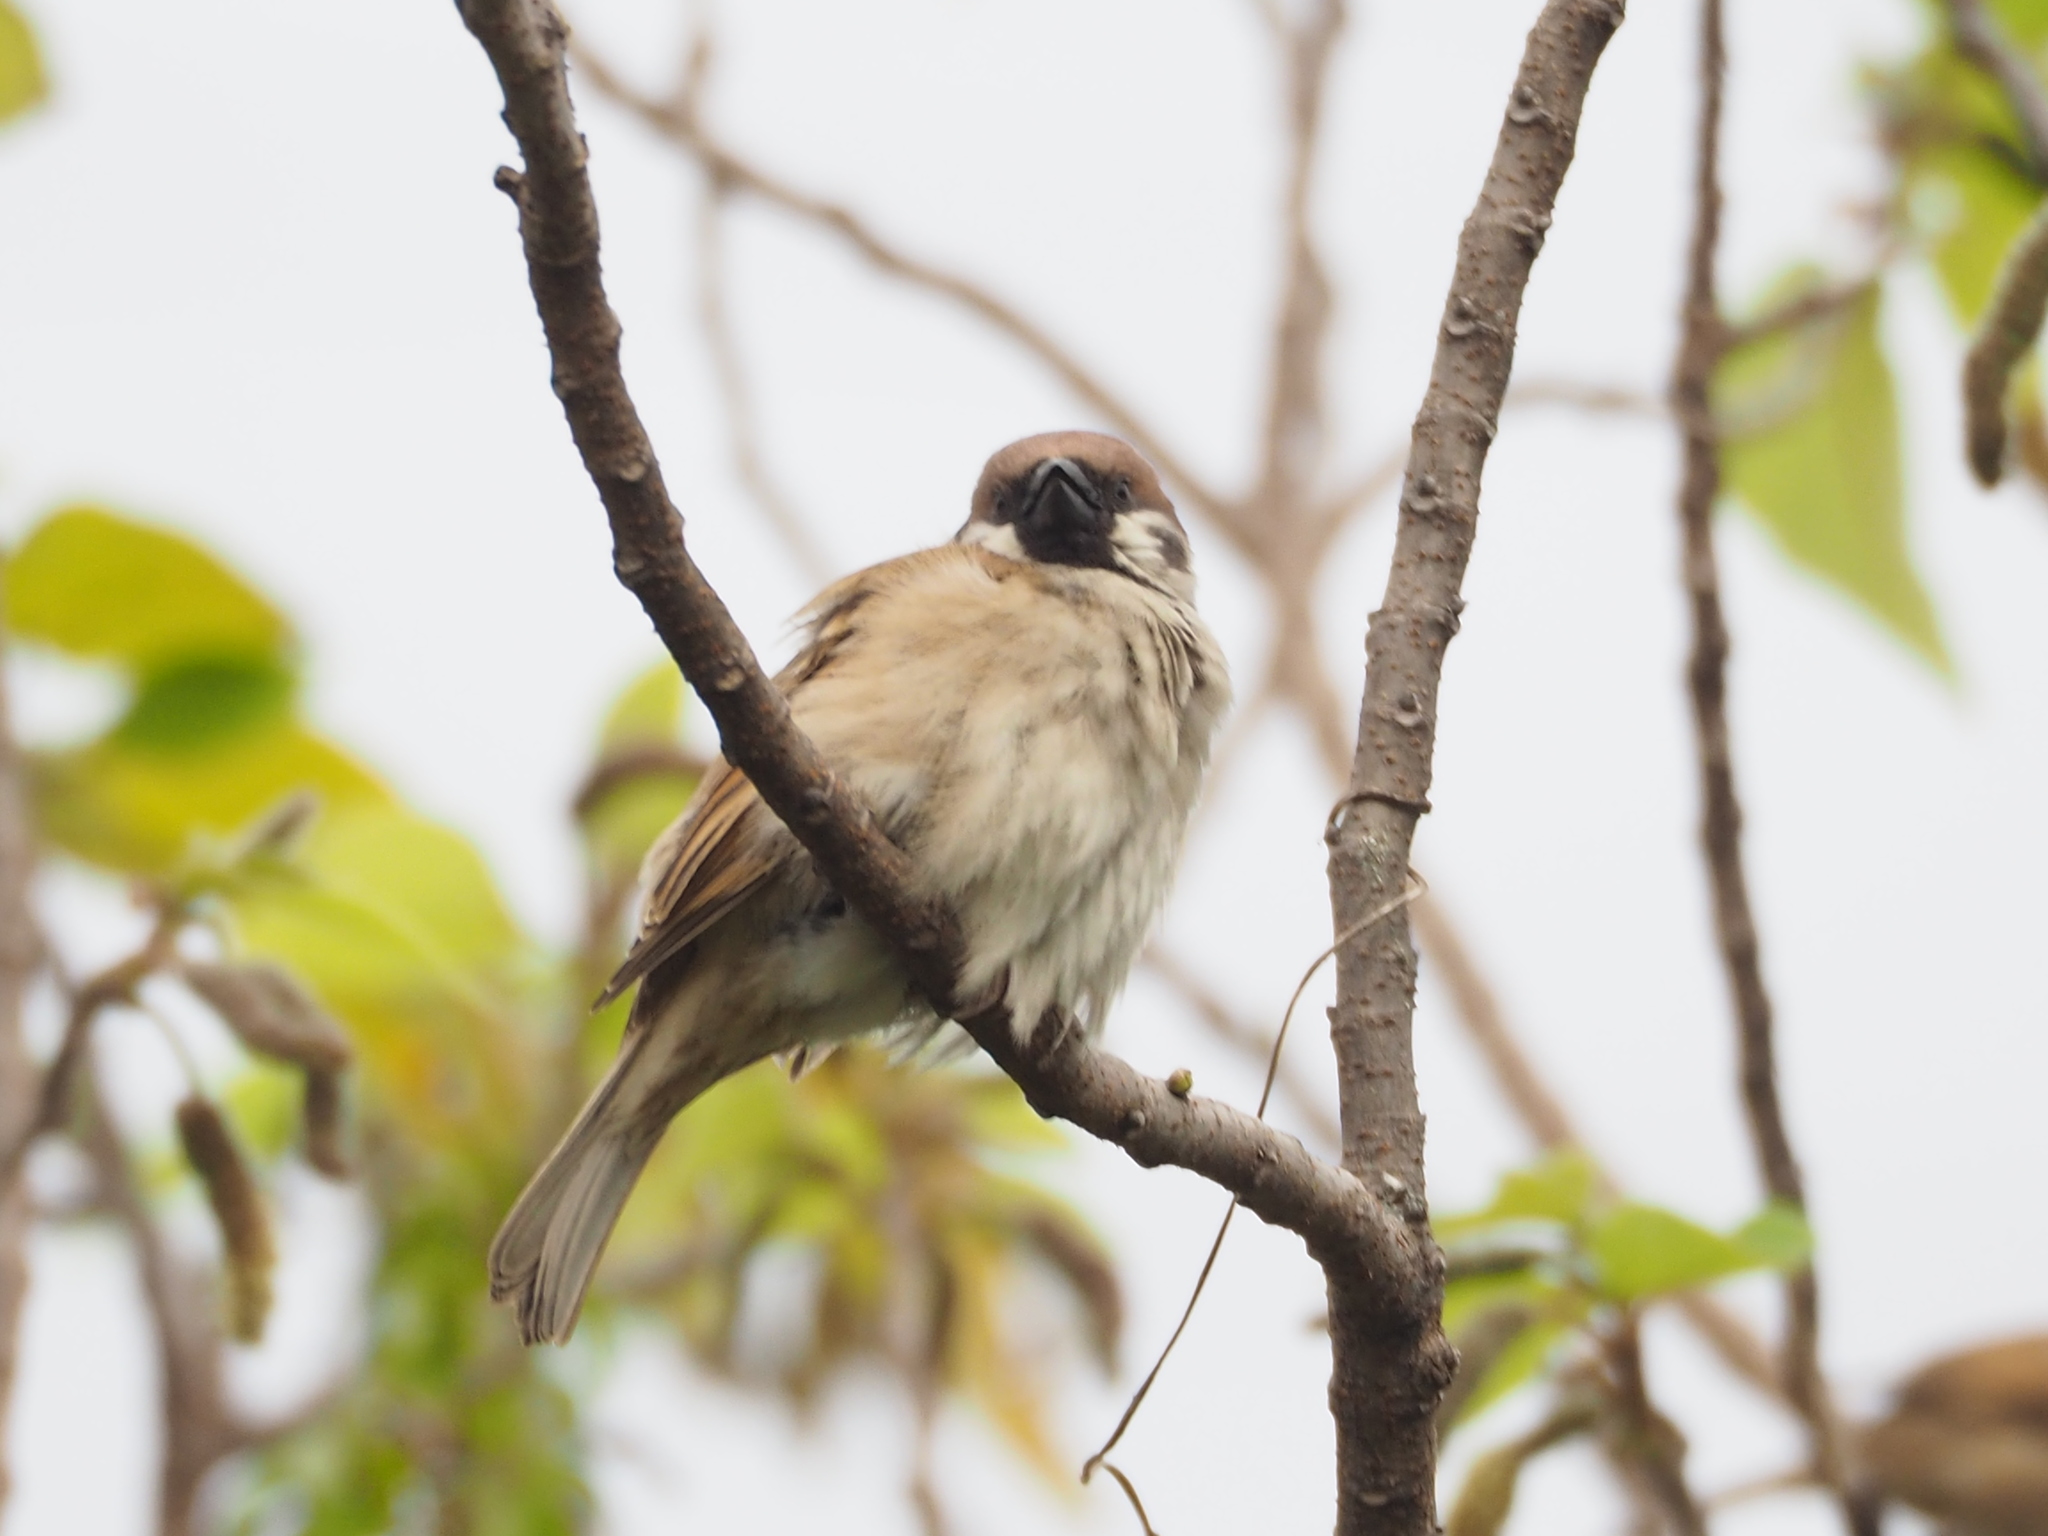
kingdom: Animalia
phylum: Chordata
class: Aves
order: Passeriformes
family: Passeridae
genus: Passer
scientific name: Passer montanus
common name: Eurasian tree sparrow
